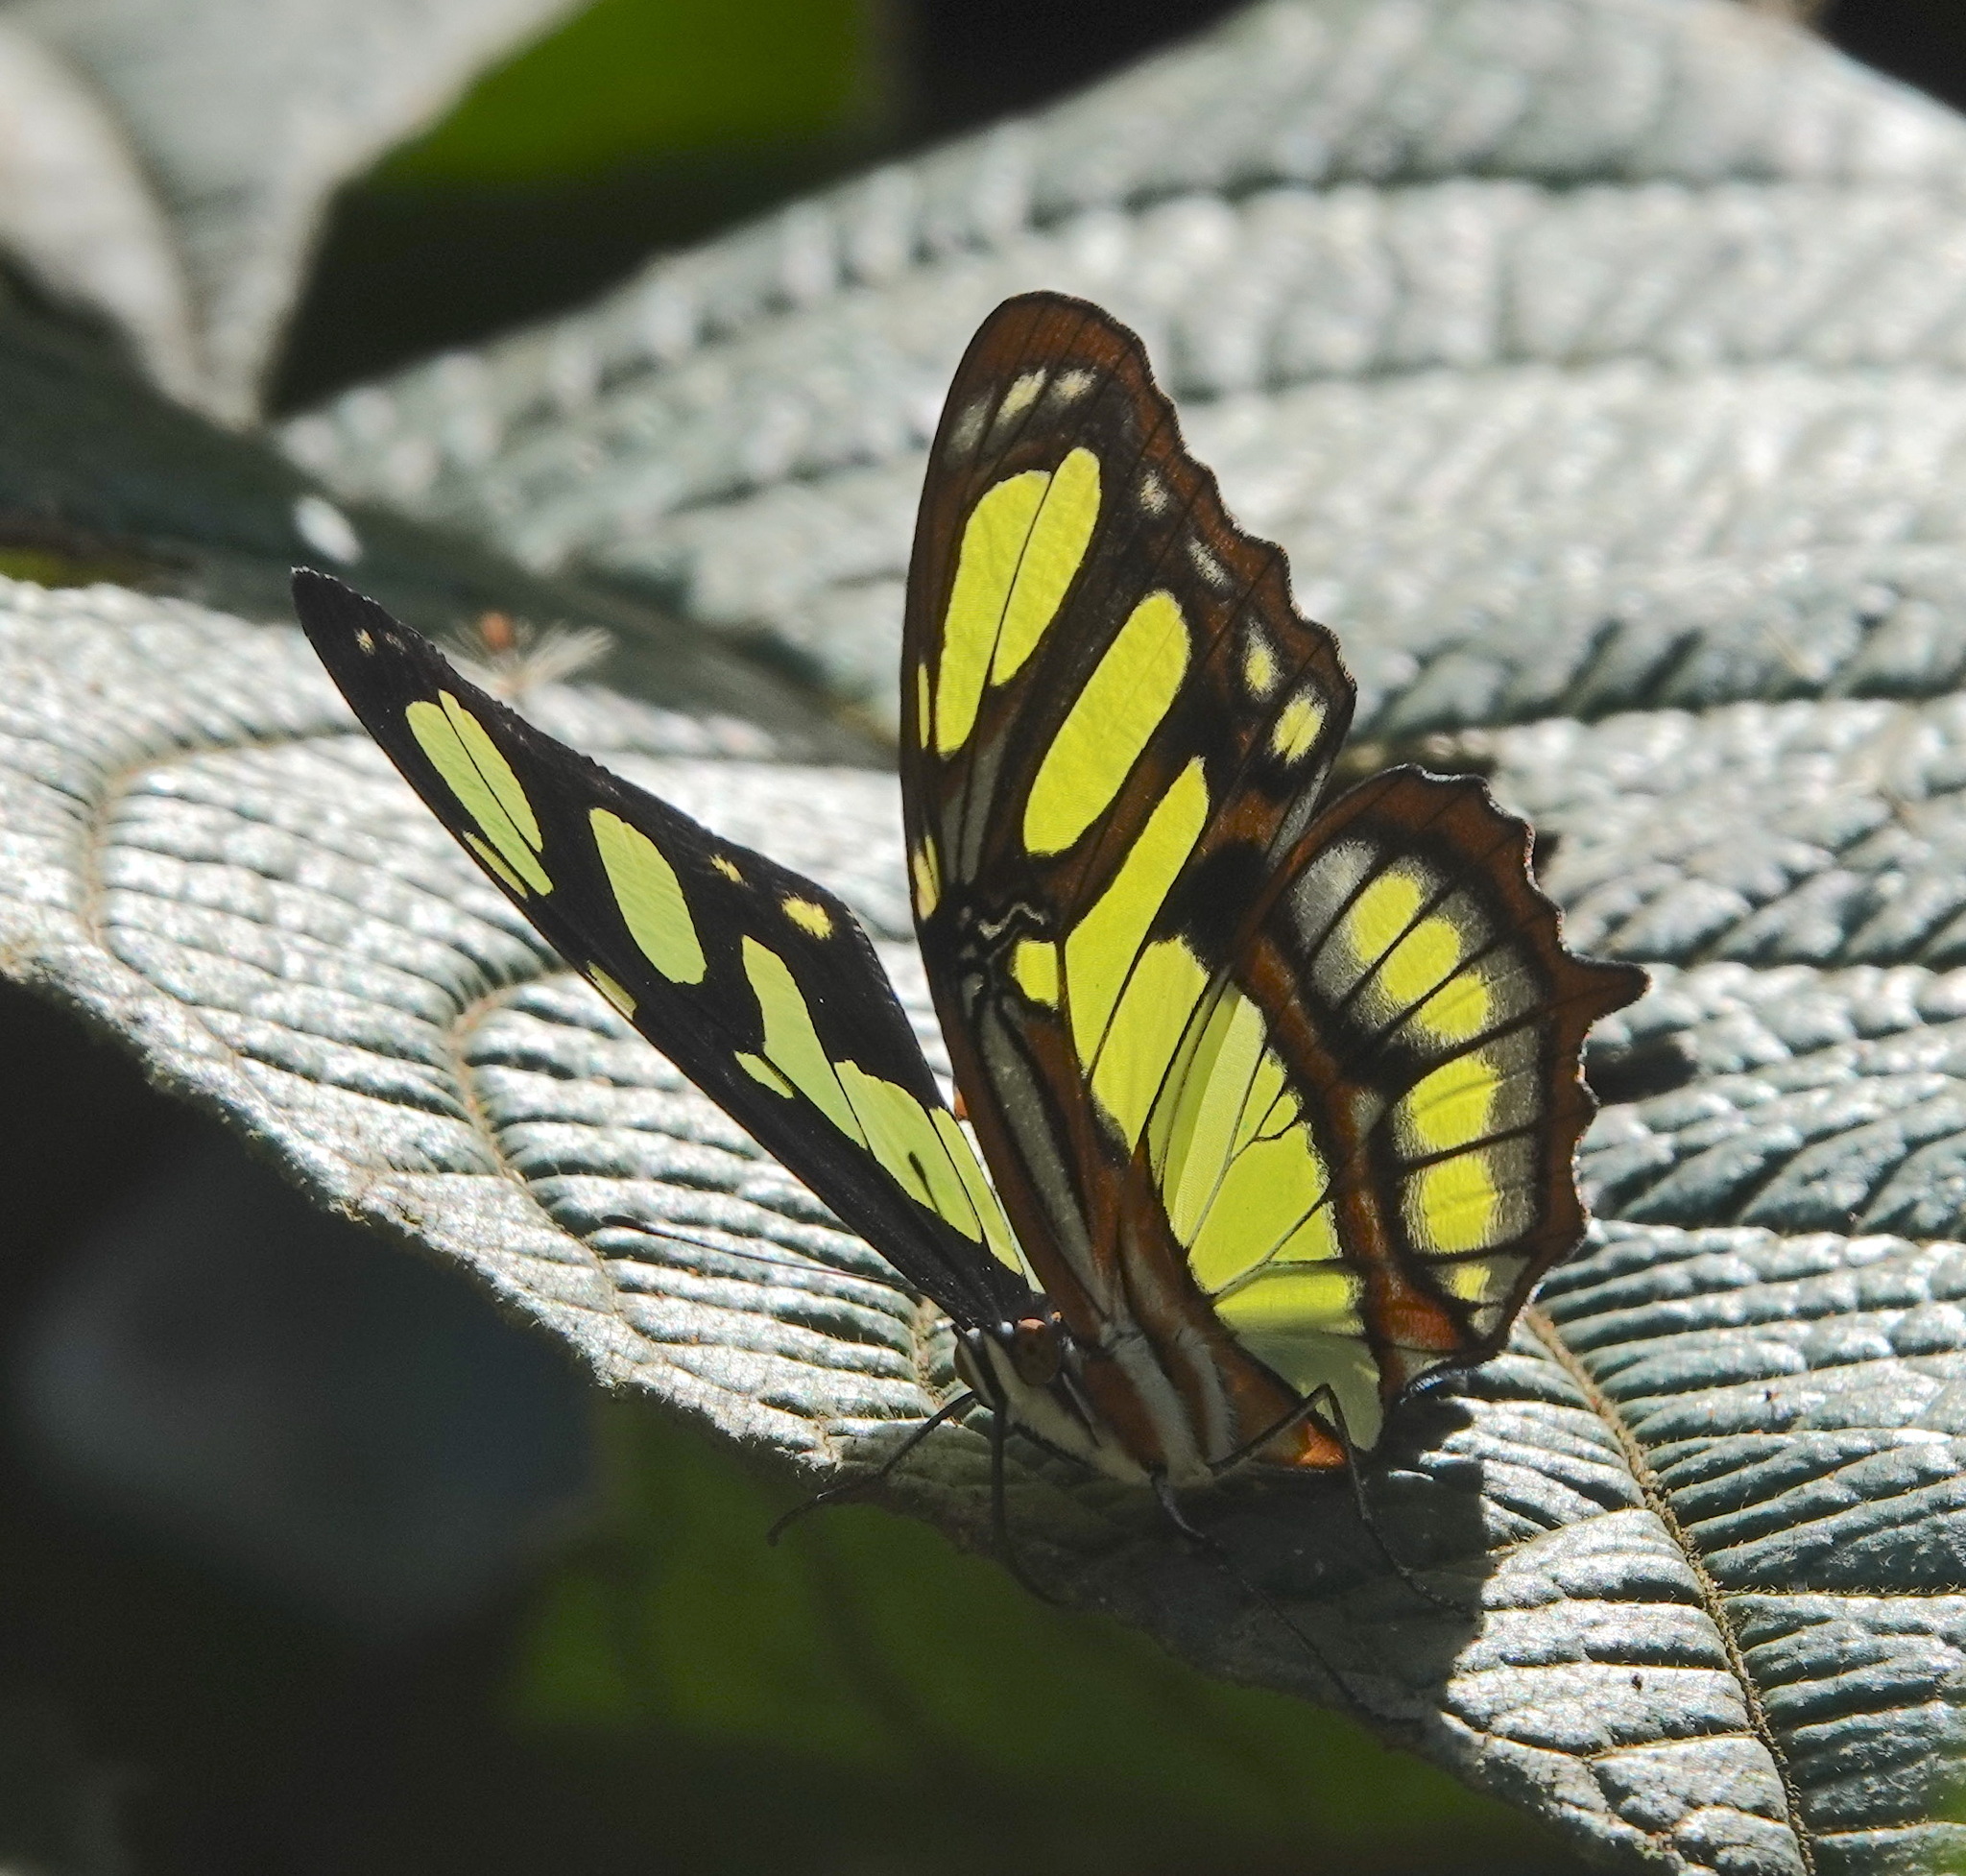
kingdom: Animalia
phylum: Arthropoda
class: Insecta
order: Lepidoptera
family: Nymphalidae
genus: Siproeta
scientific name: Siproeta stelenes
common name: Malachite
